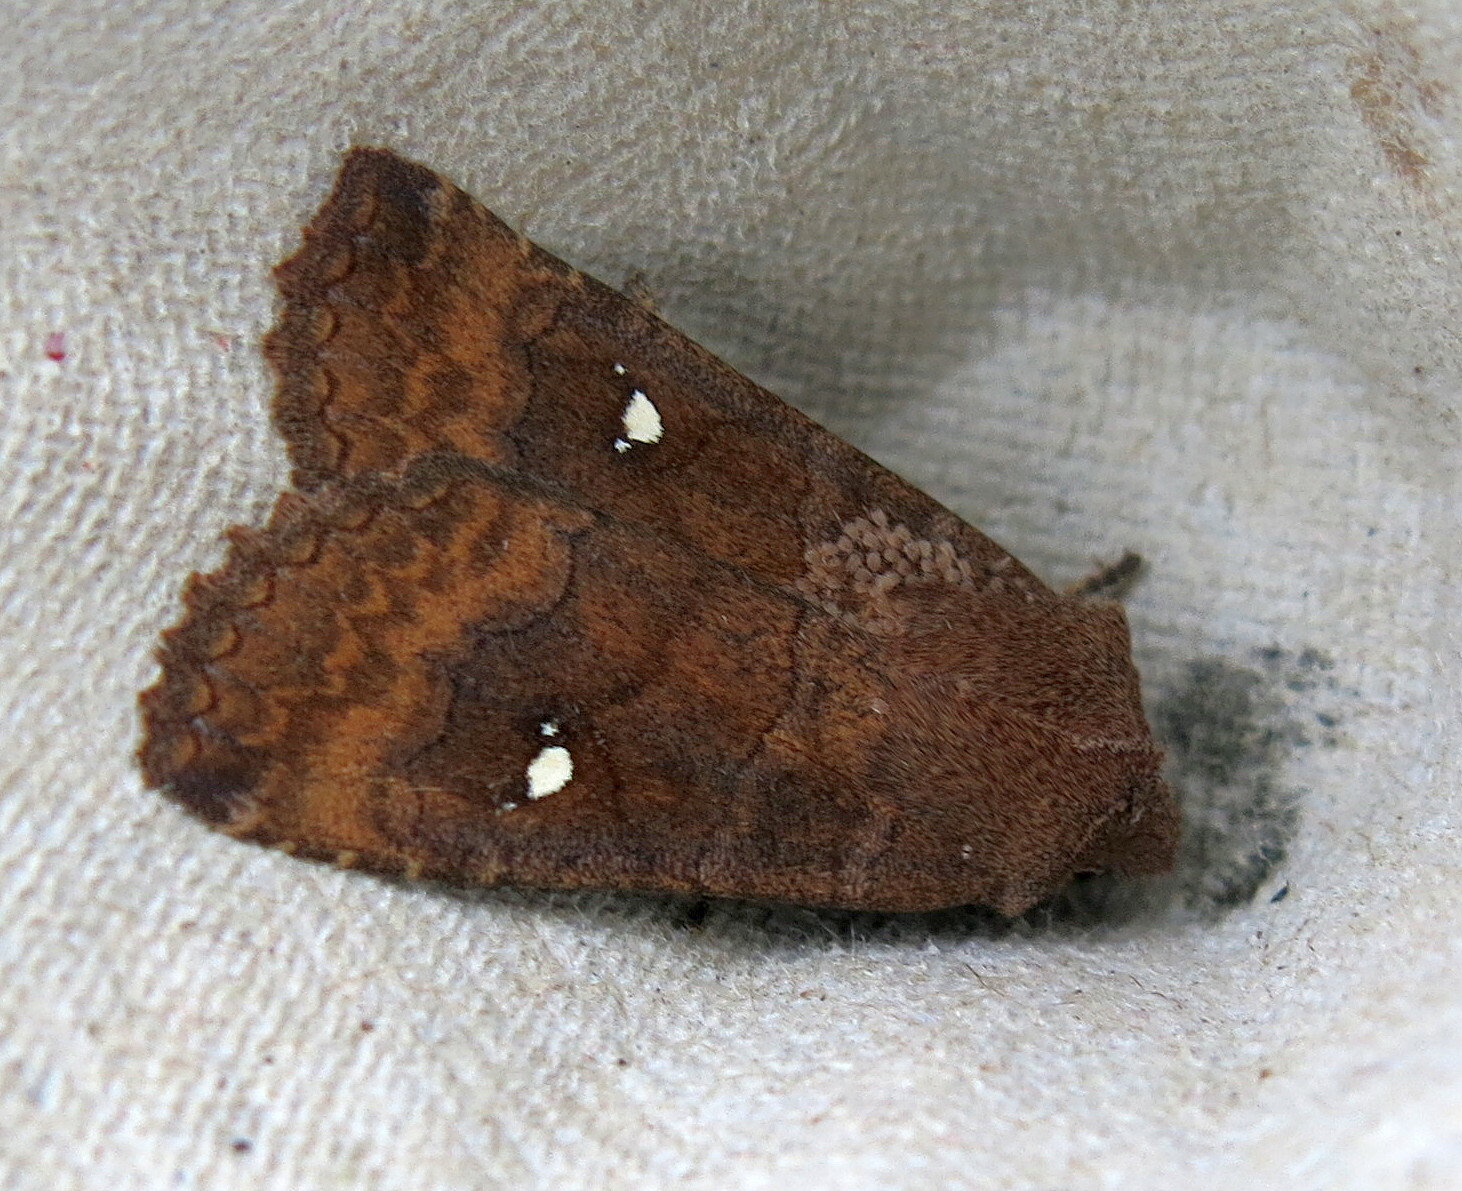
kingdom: Animalia
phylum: Arthropoda
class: Insecta
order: Lepidoptera
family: Noctuidae
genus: Eupsilia
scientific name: Eupsilia transversa
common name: Satellite
